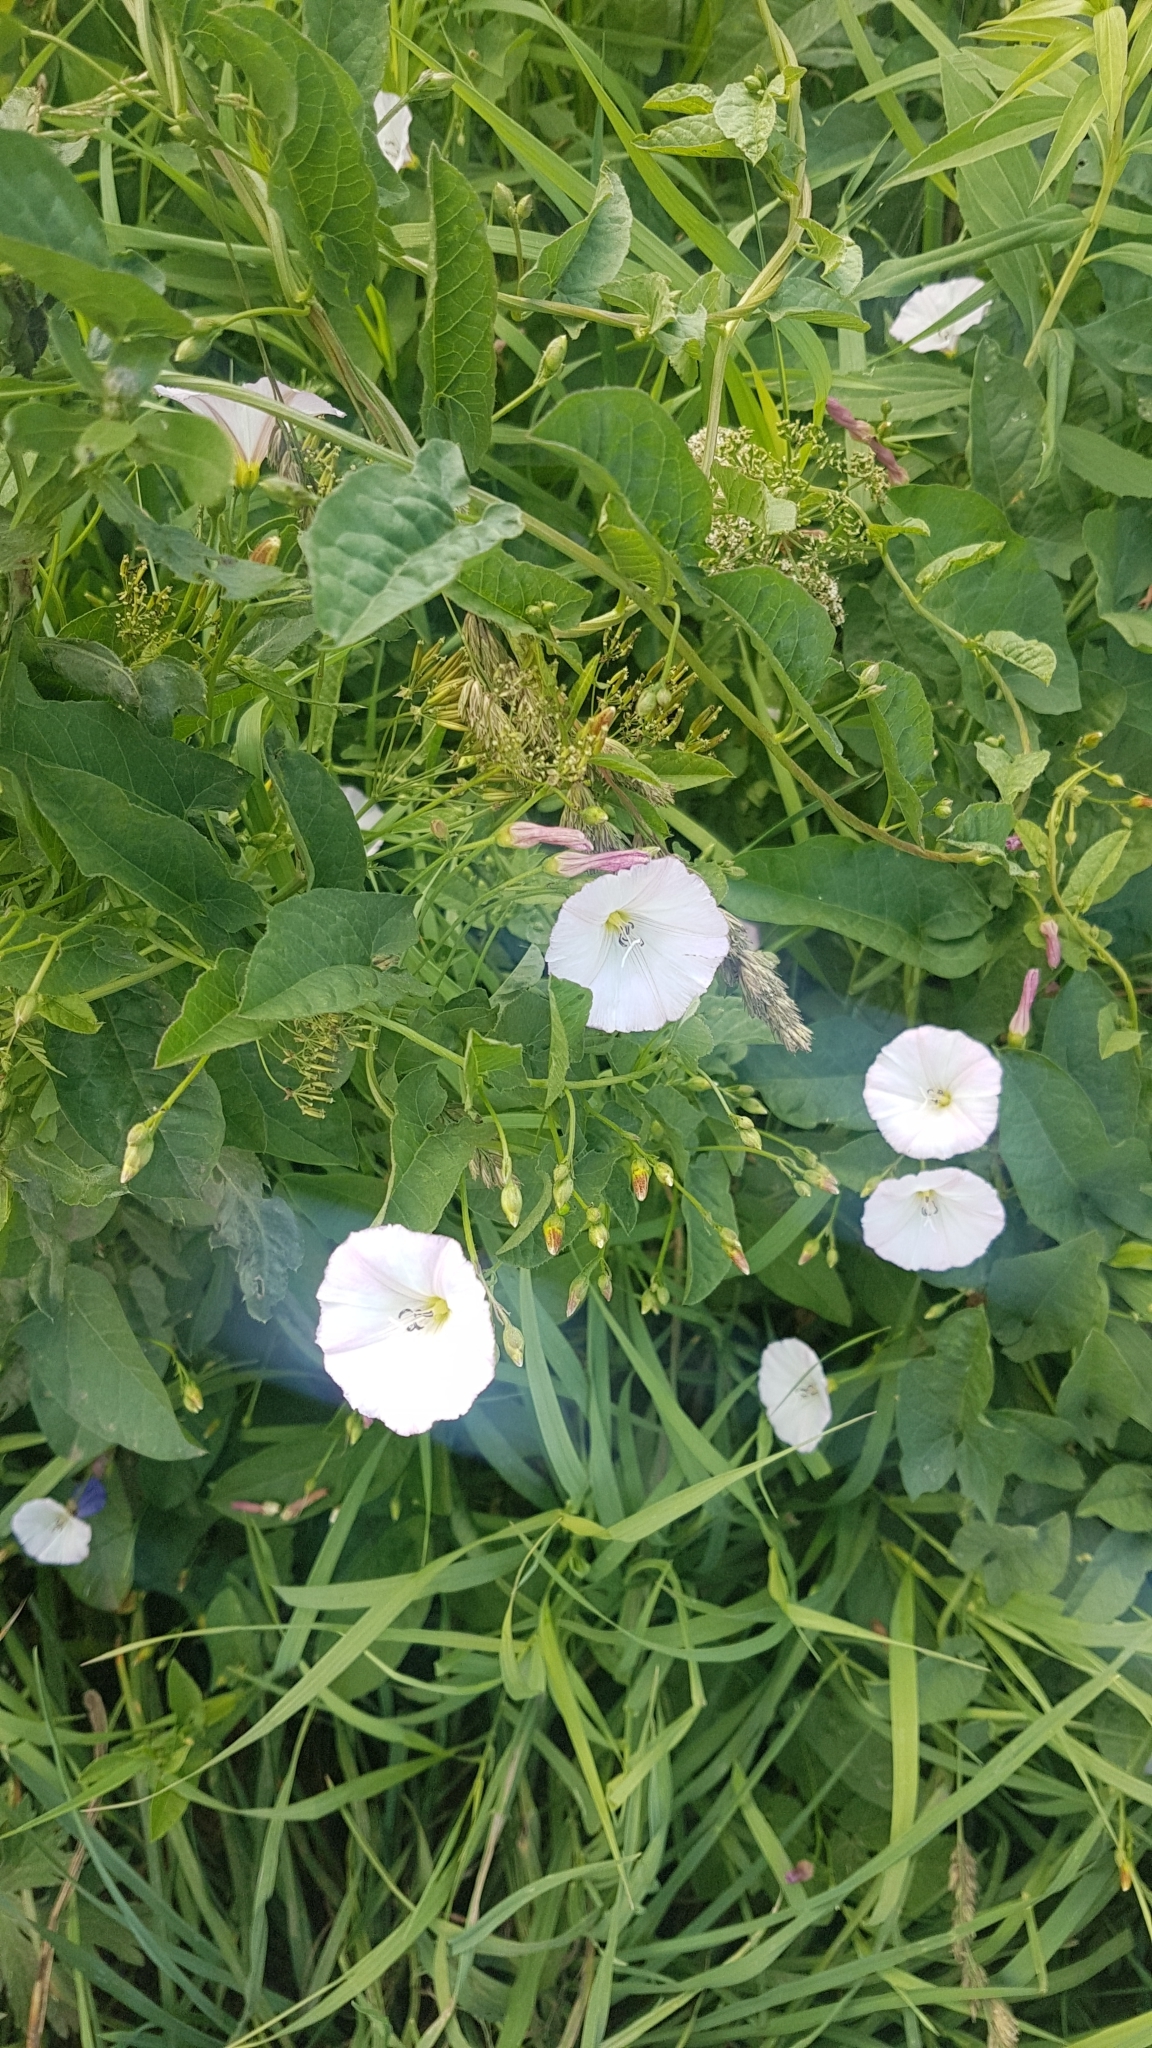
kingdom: Plantae
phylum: Tracheophyta
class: Magnoliopsida
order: Solanales
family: Convolvulaceae
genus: Convolvulus
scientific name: Convolvulus arvensis
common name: Field bindweed
